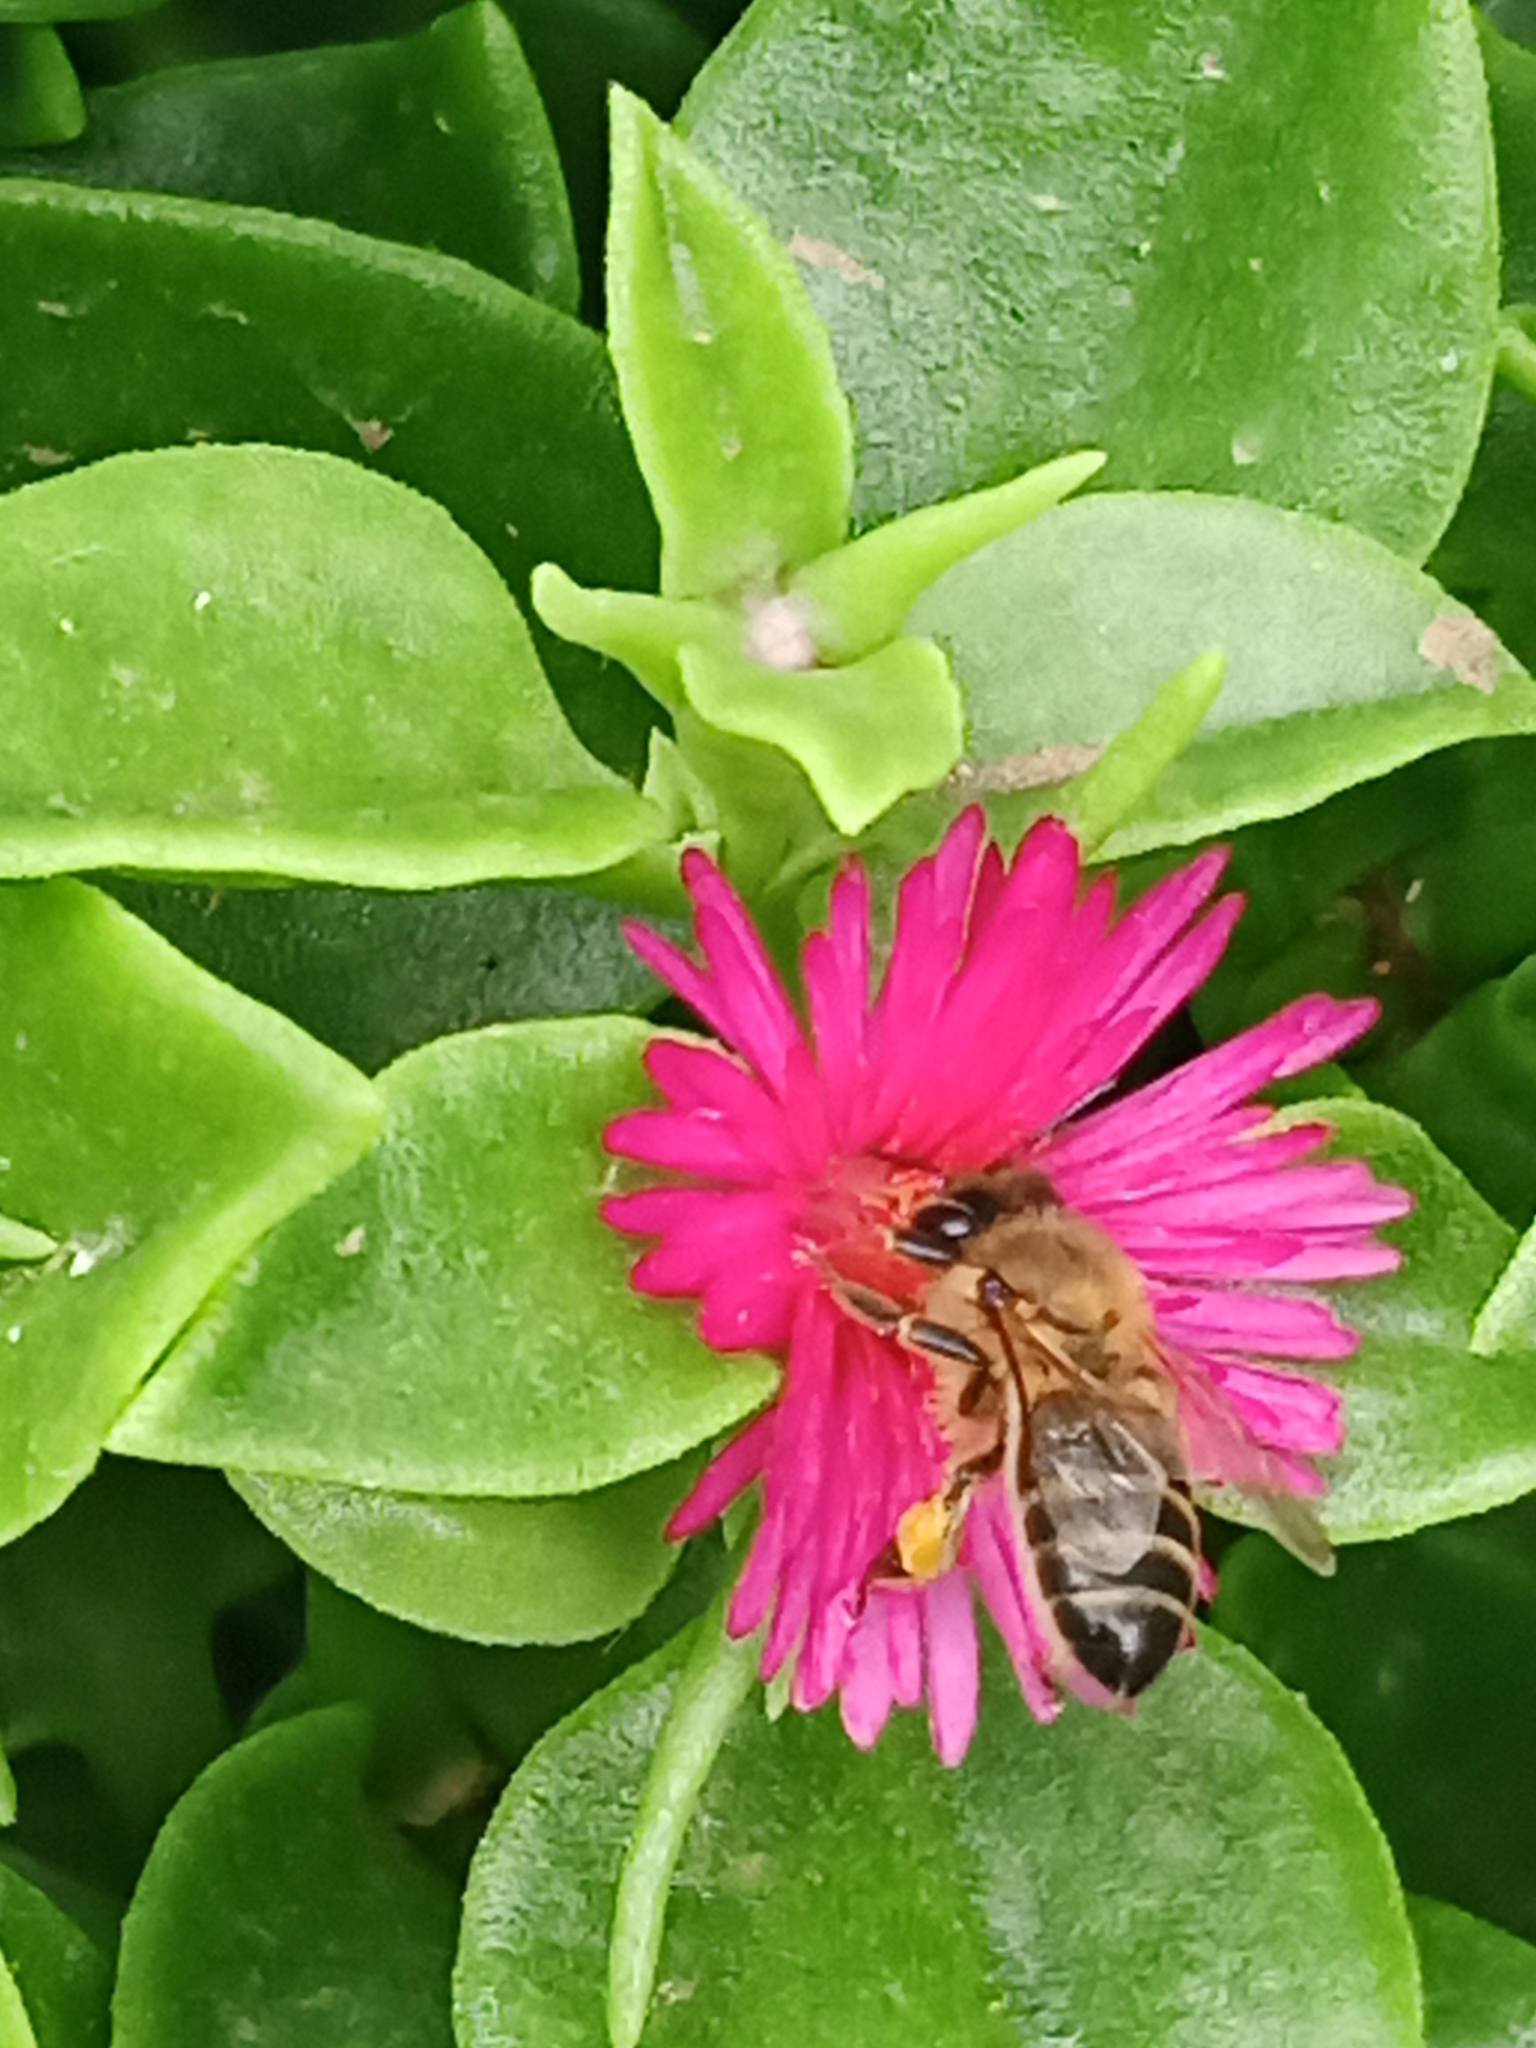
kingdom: Animalia
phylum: Arthropoda
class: Insecta
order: Hymenoptera
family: Apidae
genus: Apis
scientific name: Apis mellifera
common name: Honey bee
